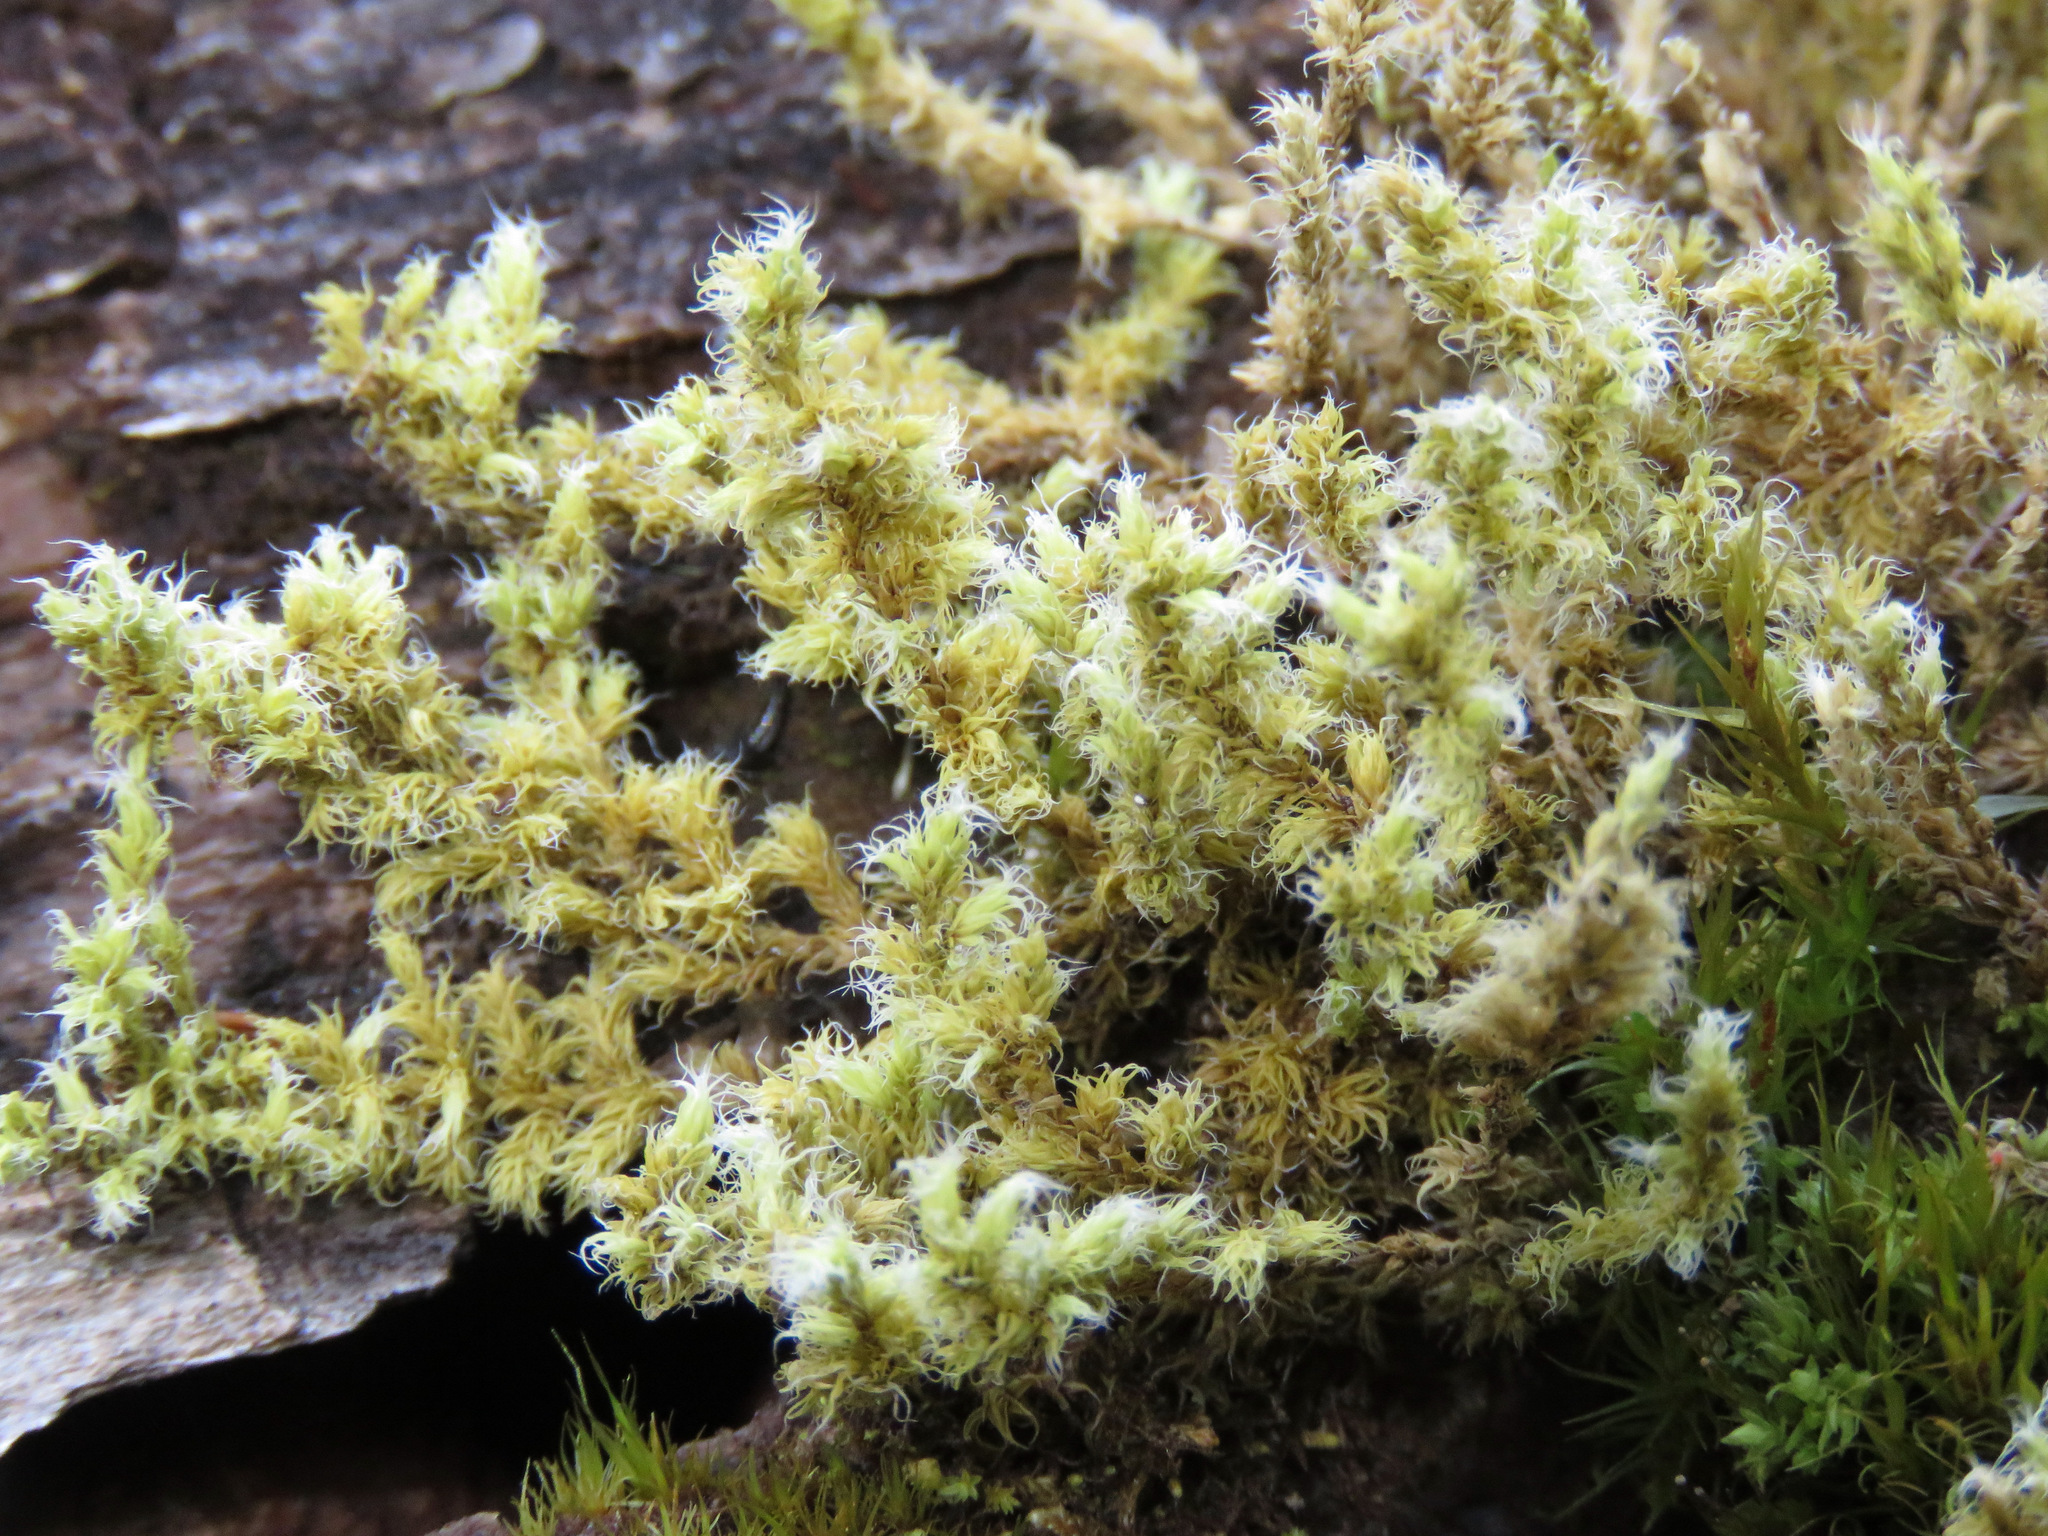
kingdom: Plantae
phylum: Bryophyta
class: Bryopsida
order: Grimmiales
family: Grimmiaceae
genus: Niphotrichum
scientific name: Niphotrichum elongatum
